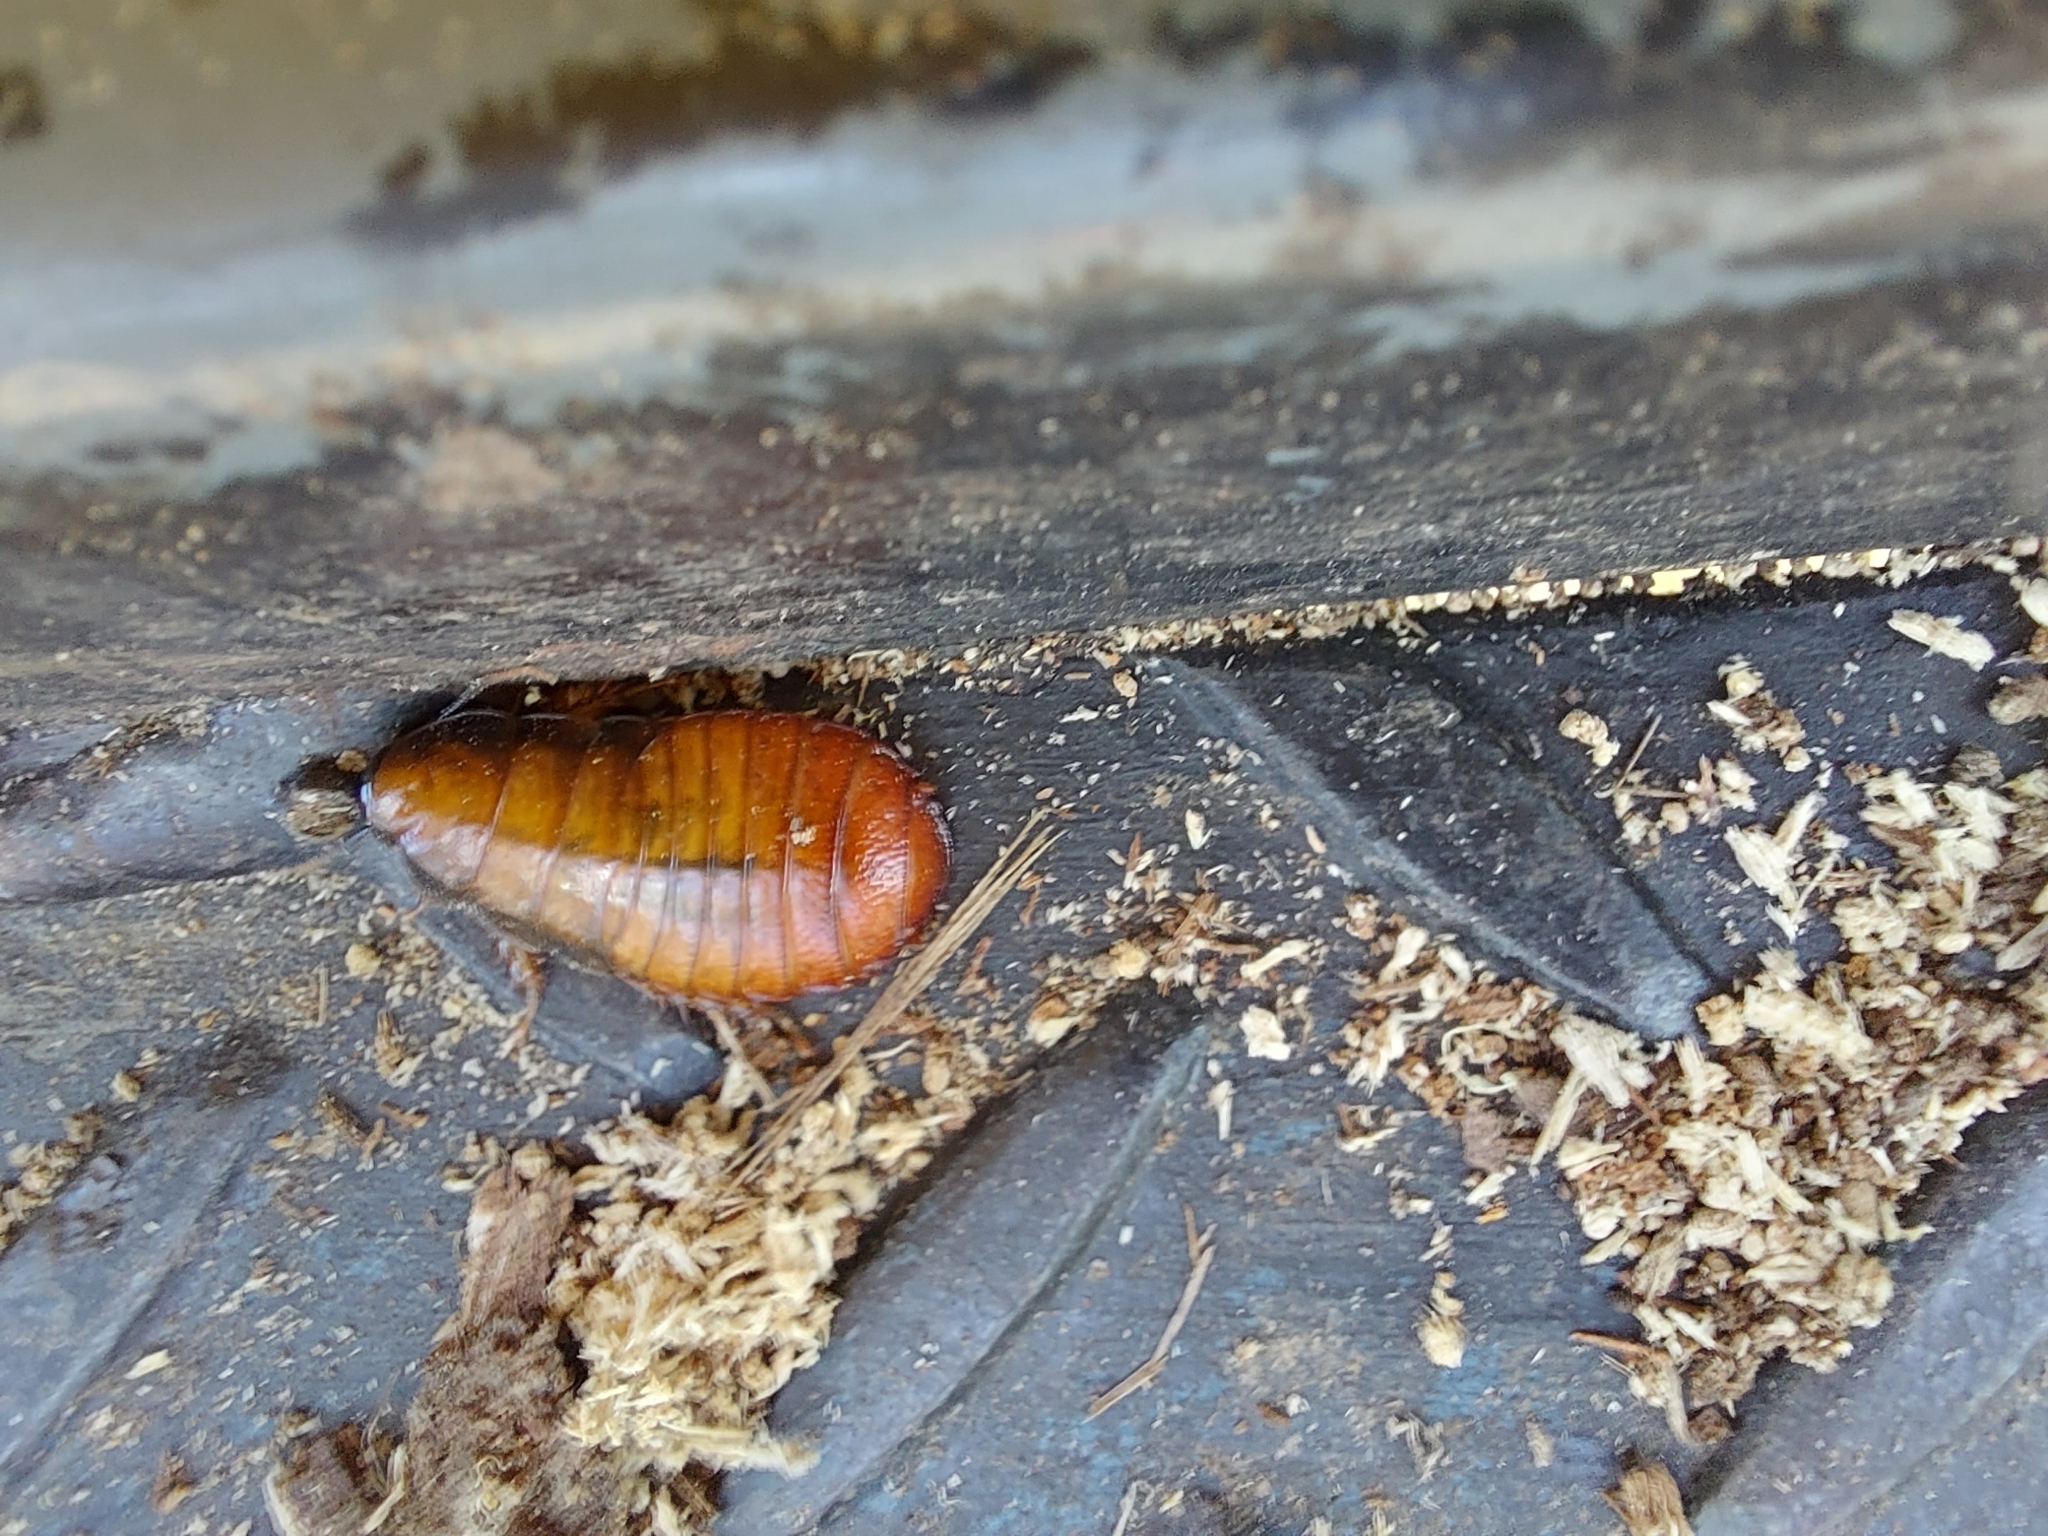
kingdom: Animalia
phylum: Arthropoda
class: Insecta
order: Blattodea
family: Blaberidae
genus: Panesthia
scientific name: Panesthia australis
